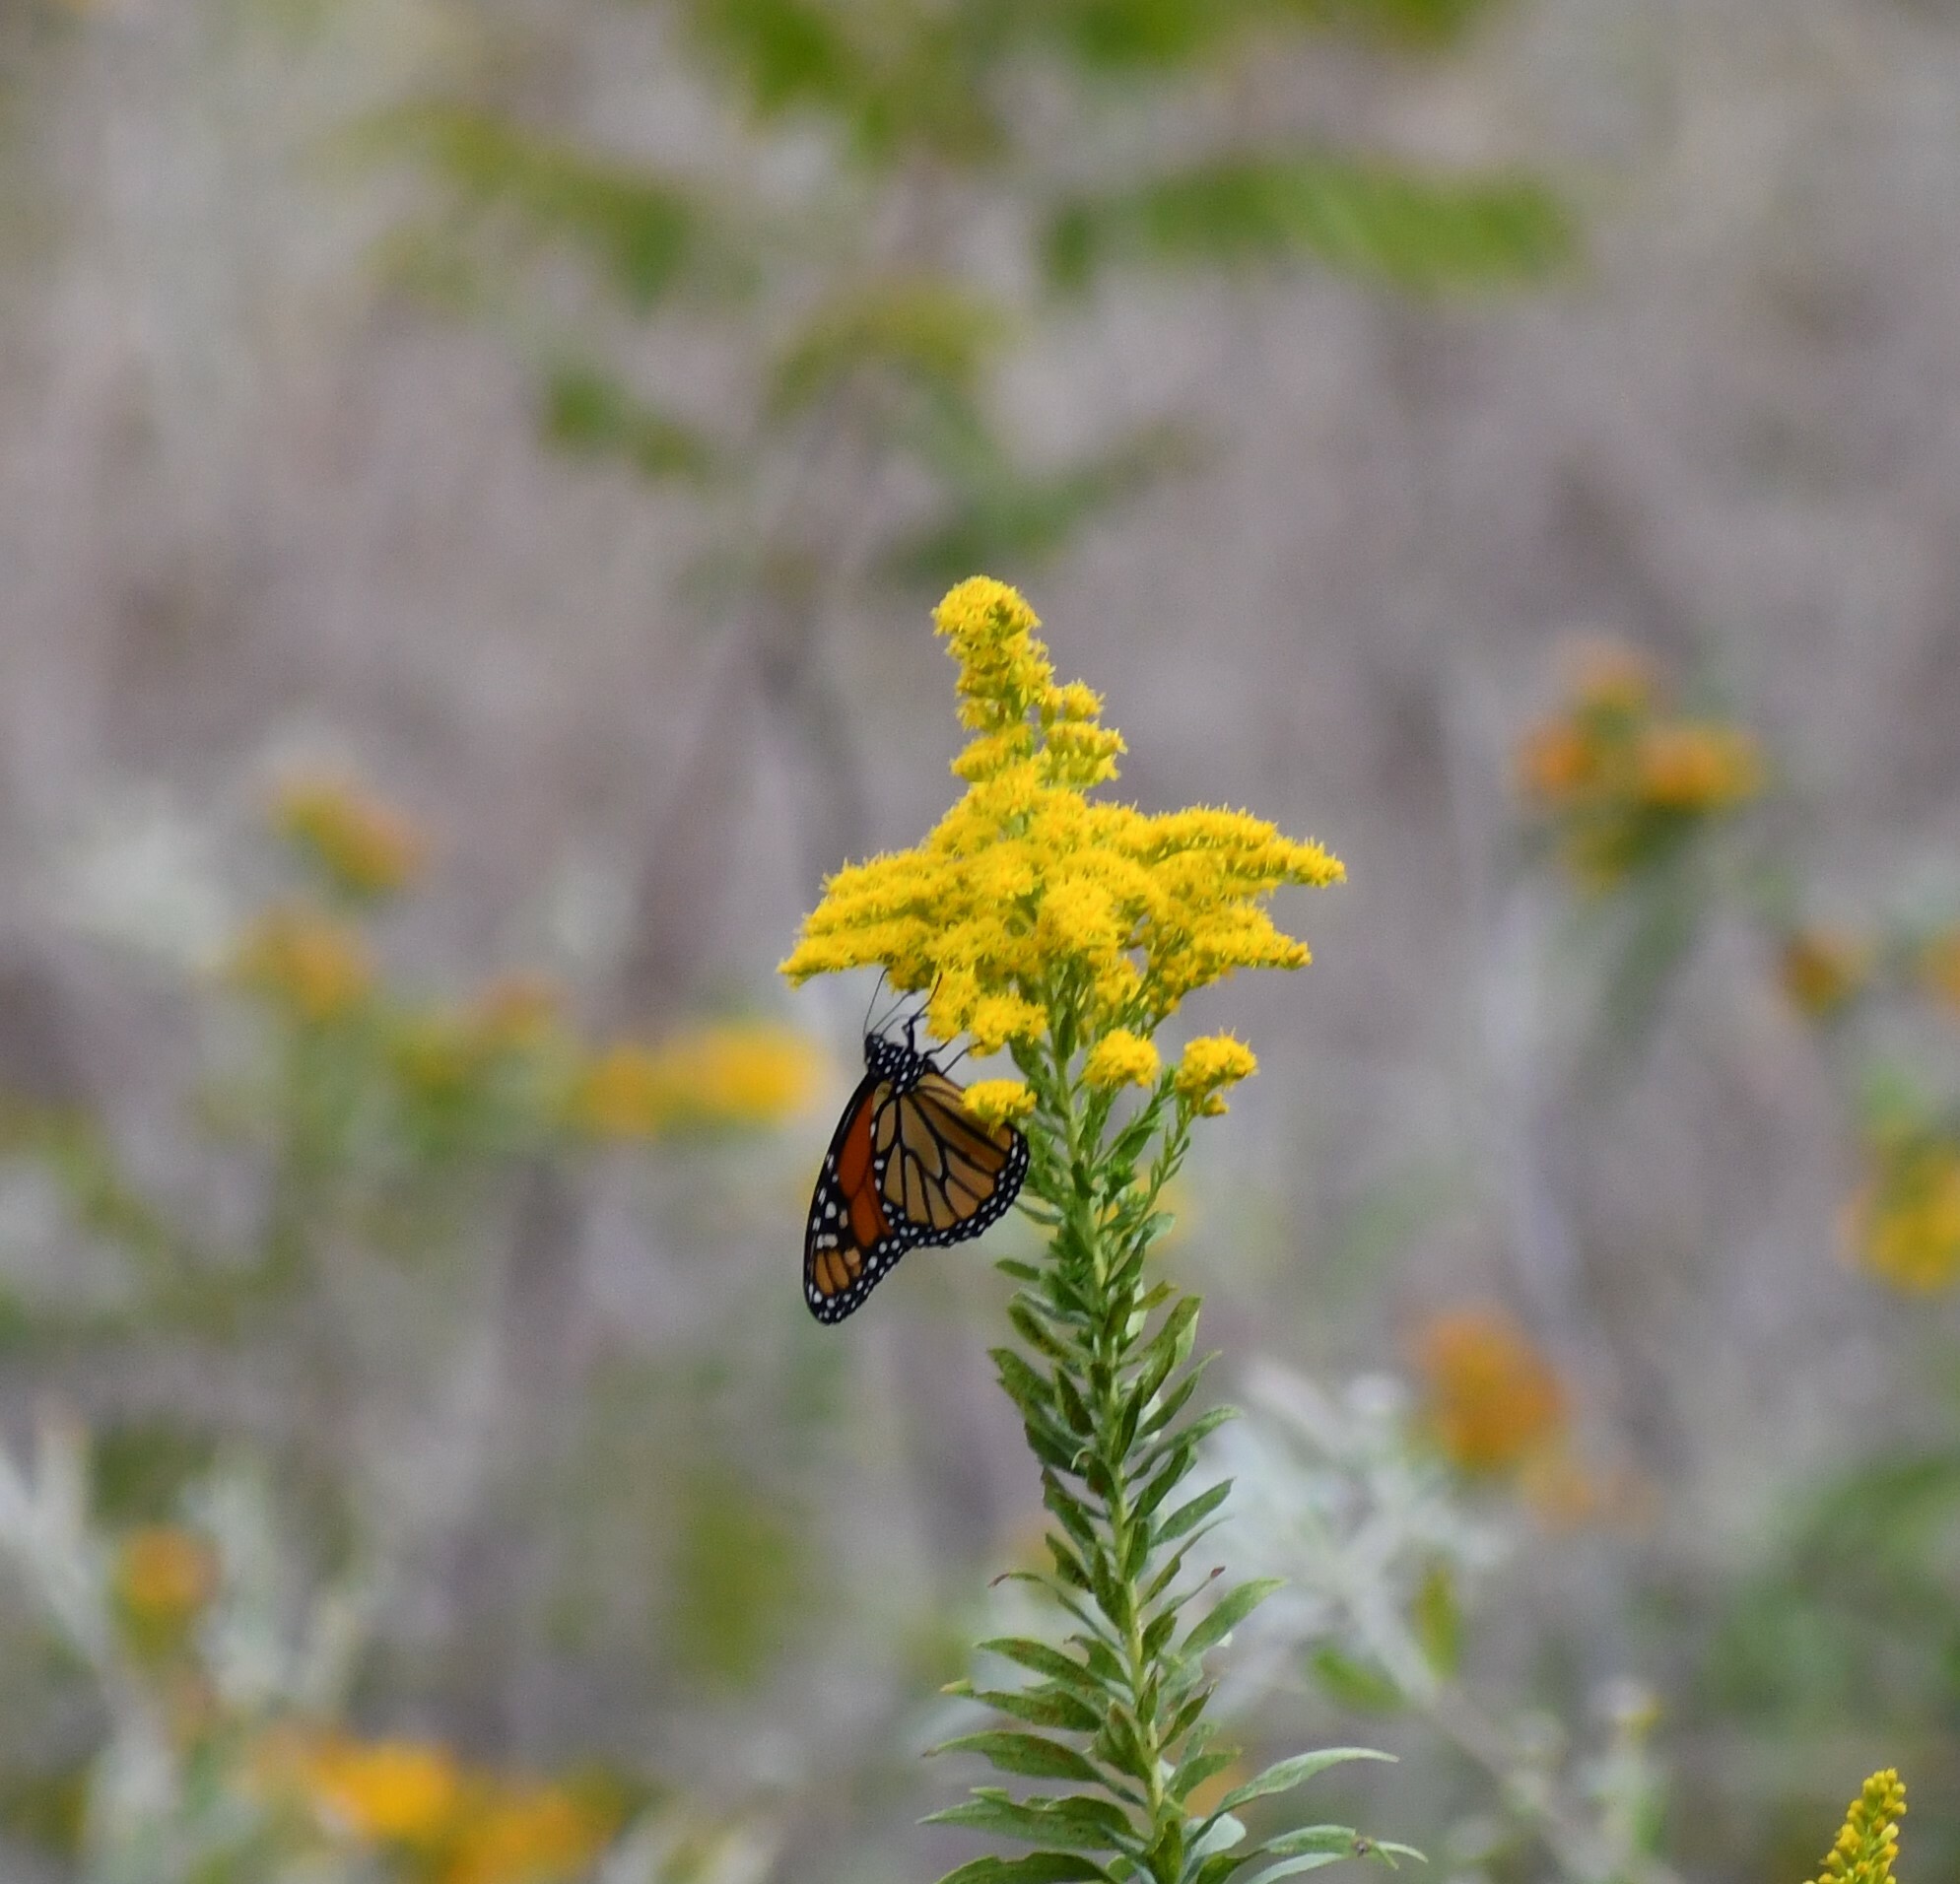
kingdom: Animalia
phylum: Arthropoda
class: Insecta
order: Lepidoptera
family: Nymphalidae
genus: Danaus
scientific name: Danaus plexippus
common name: Monarch
